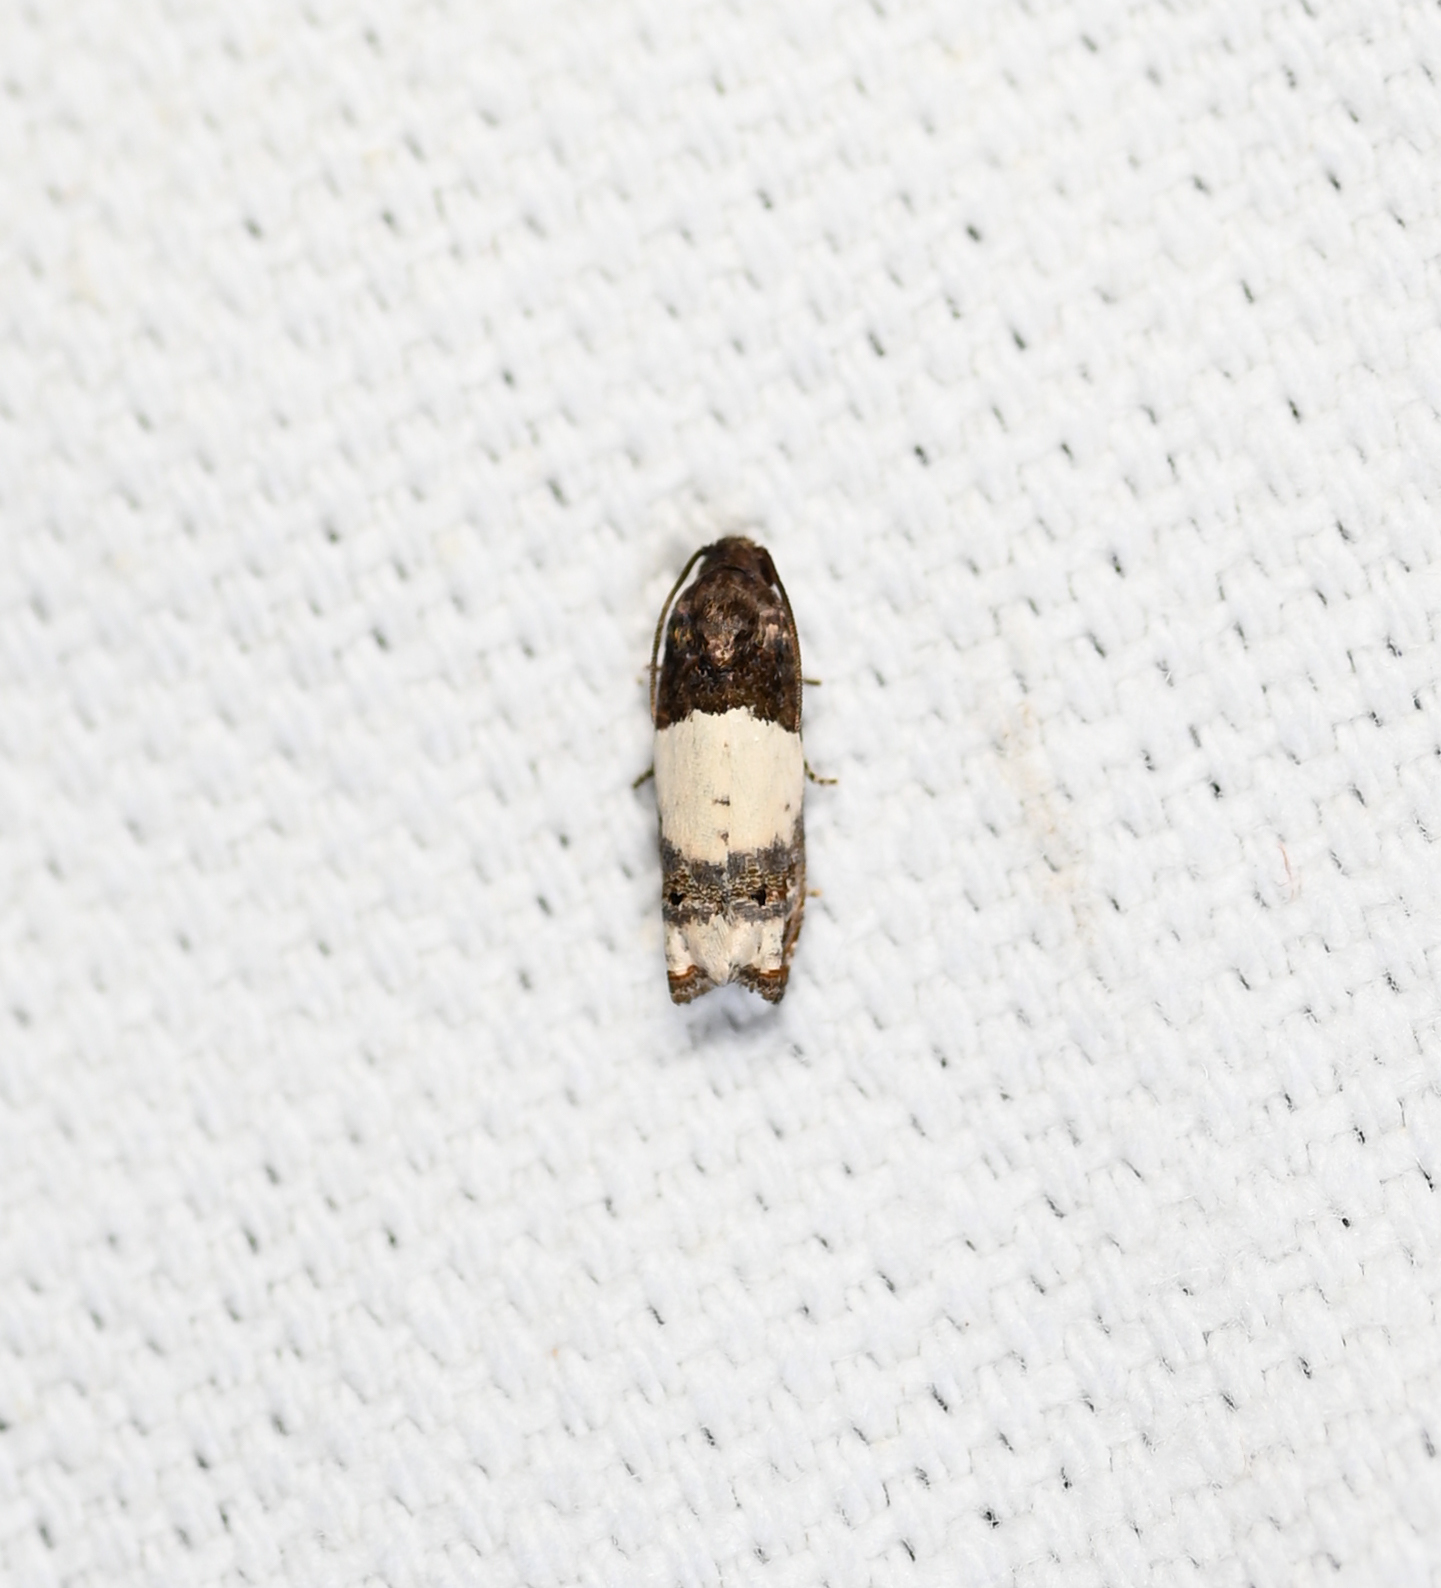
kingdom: Animalia
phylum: Arthropoda
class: Insecta
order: Lepidoptera
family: Tortricidae
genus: Epiblema
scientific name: Epiblema scudderiana
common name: Goldenrod gall moth
